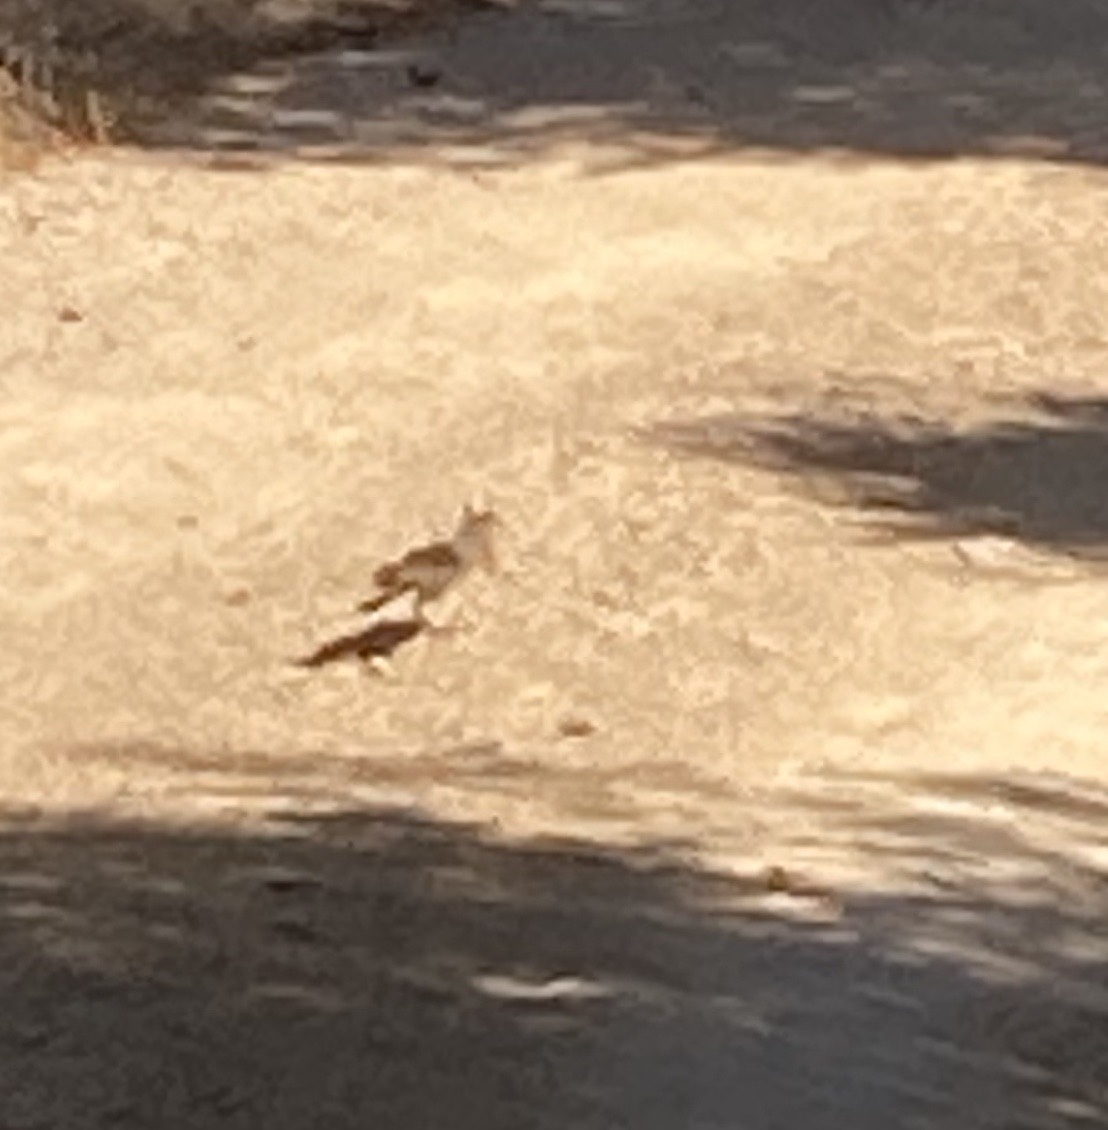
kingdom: Animalia
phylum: Chordata
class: Mammalia
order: Rodentia
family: Sciuridae
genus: Sciurus
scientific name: Sciurus anomalus
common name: Caucasian squirrel
